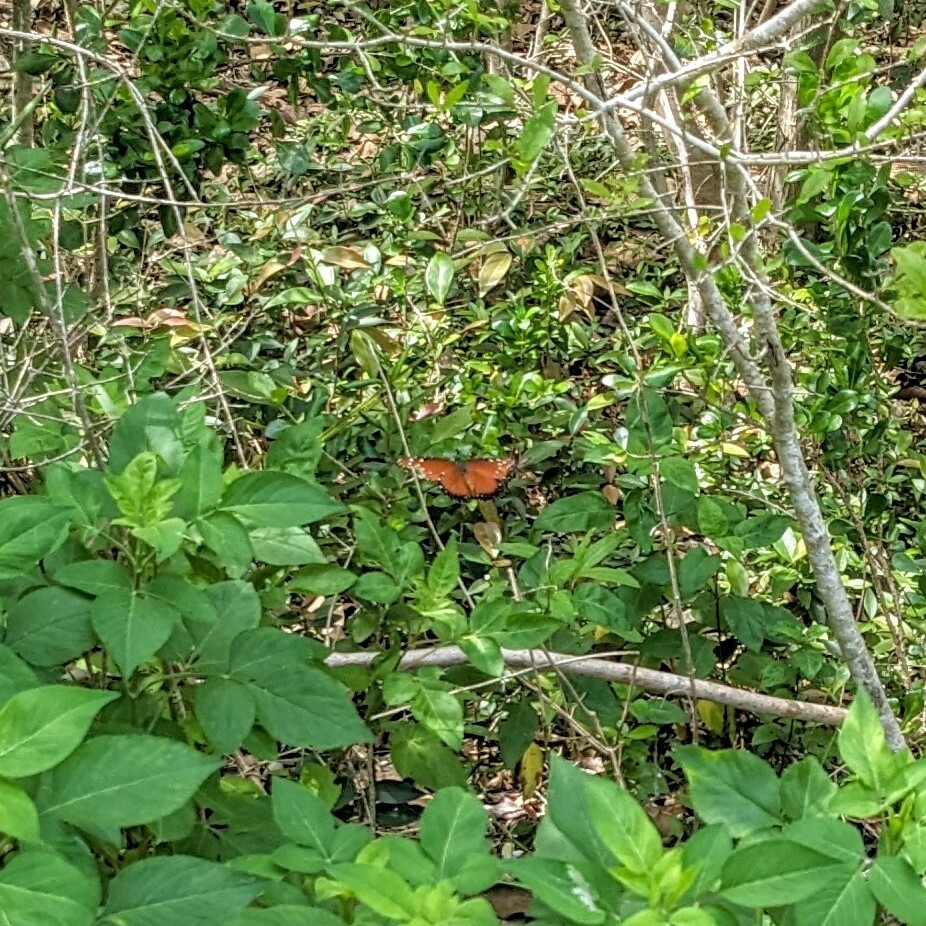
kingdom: Animalia
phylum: Arthropoda
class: Insecta
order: Lepidoptera
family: Nymphalidae
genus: Danaus
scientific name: Danaus gilippus
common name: Queen
